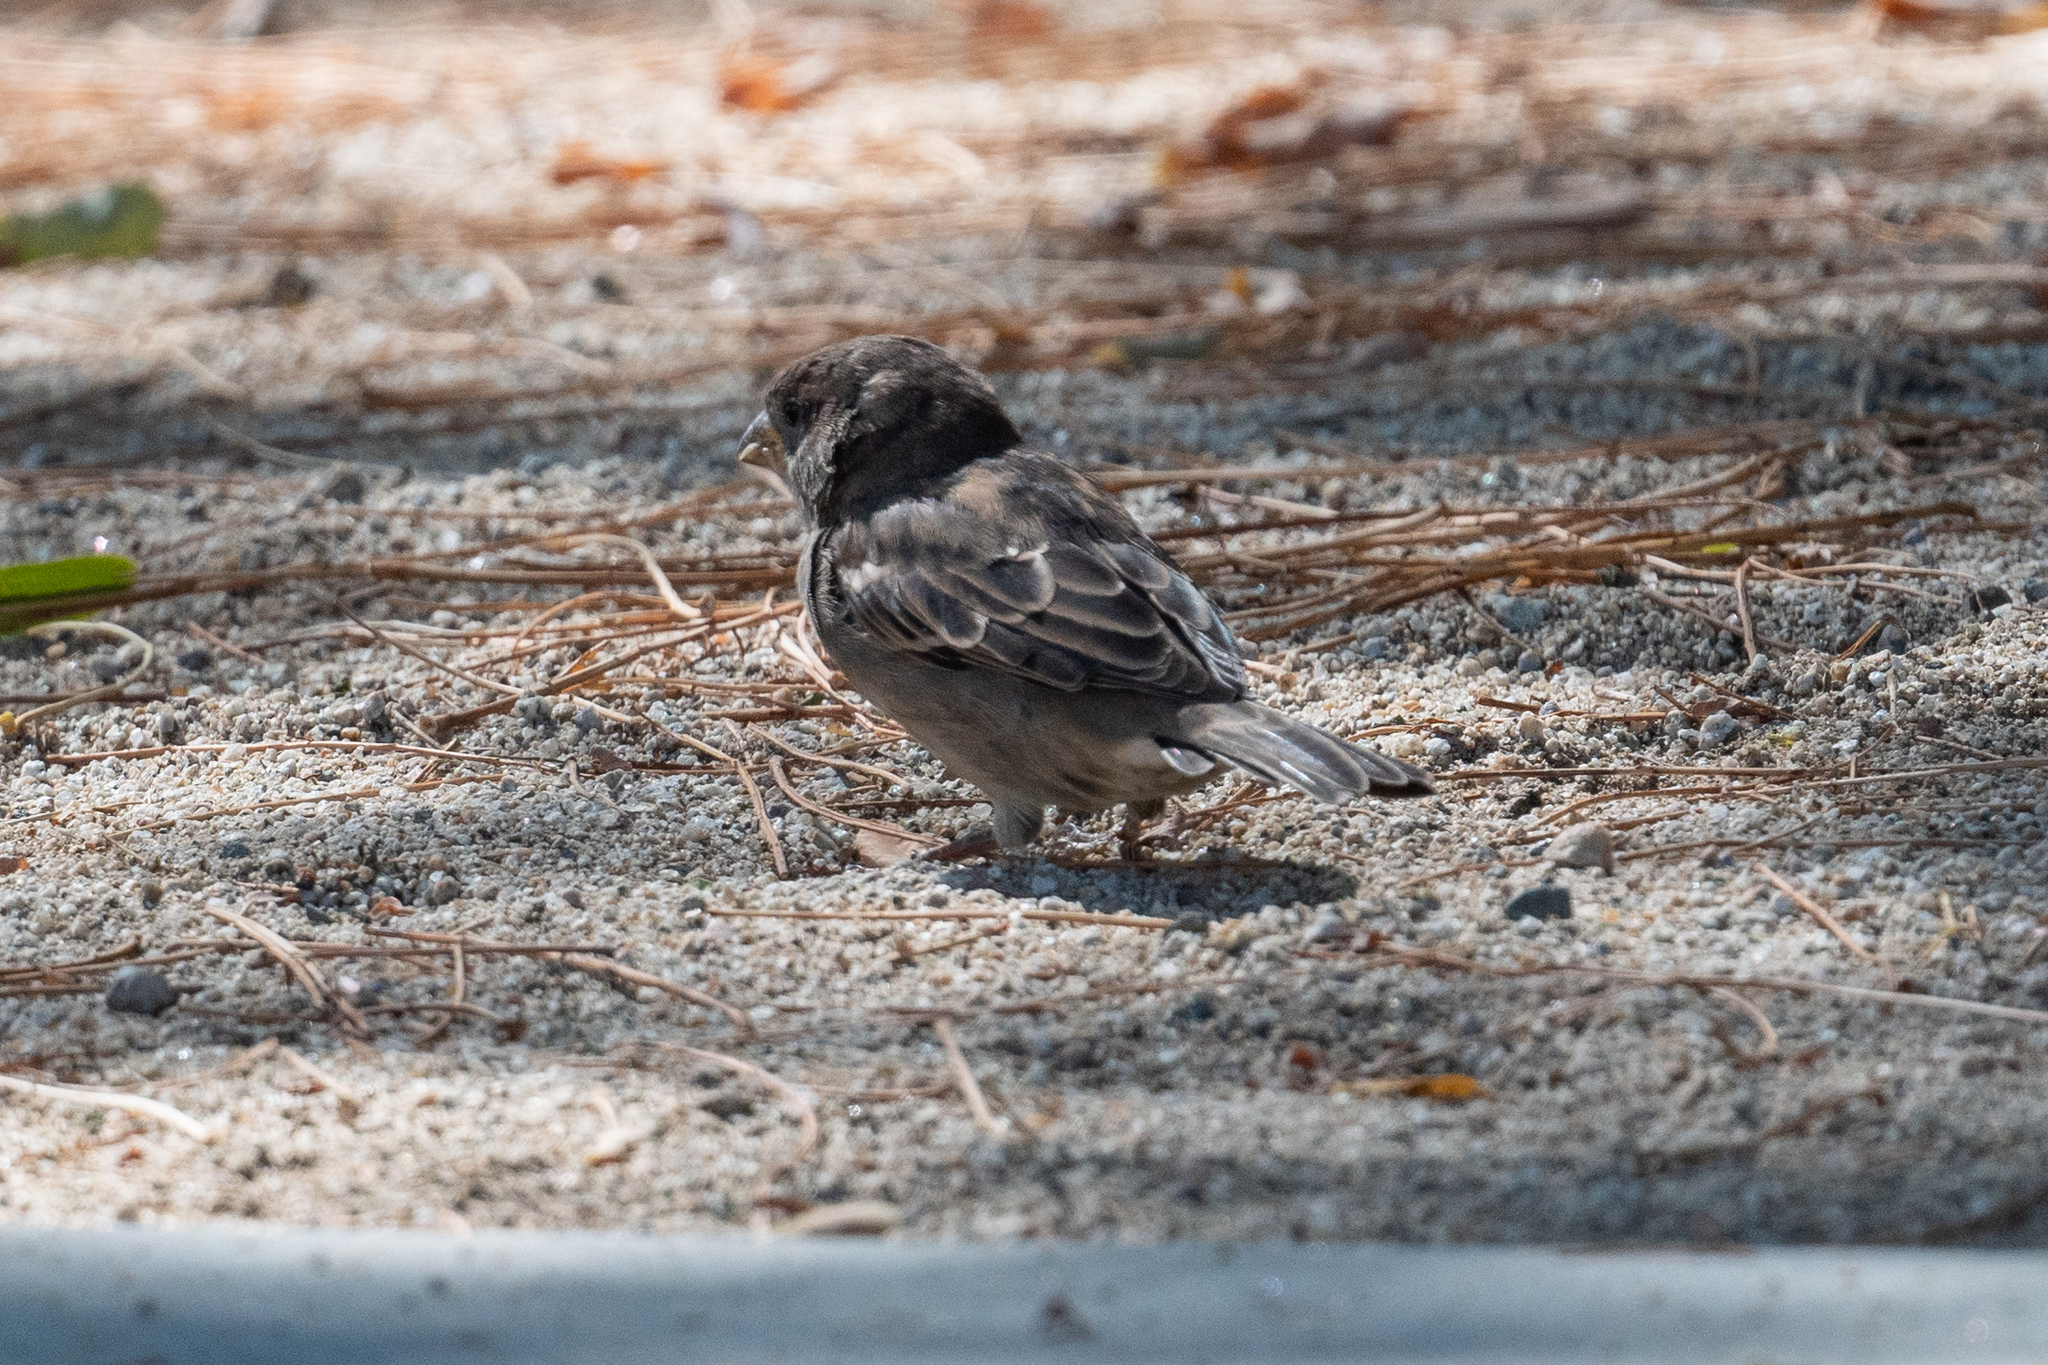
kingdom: Animalia
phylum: Chordata
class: Aves
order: Passeriformes
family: Passeridae
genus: Passer
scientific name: Passer domesticus
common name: House sparrow
